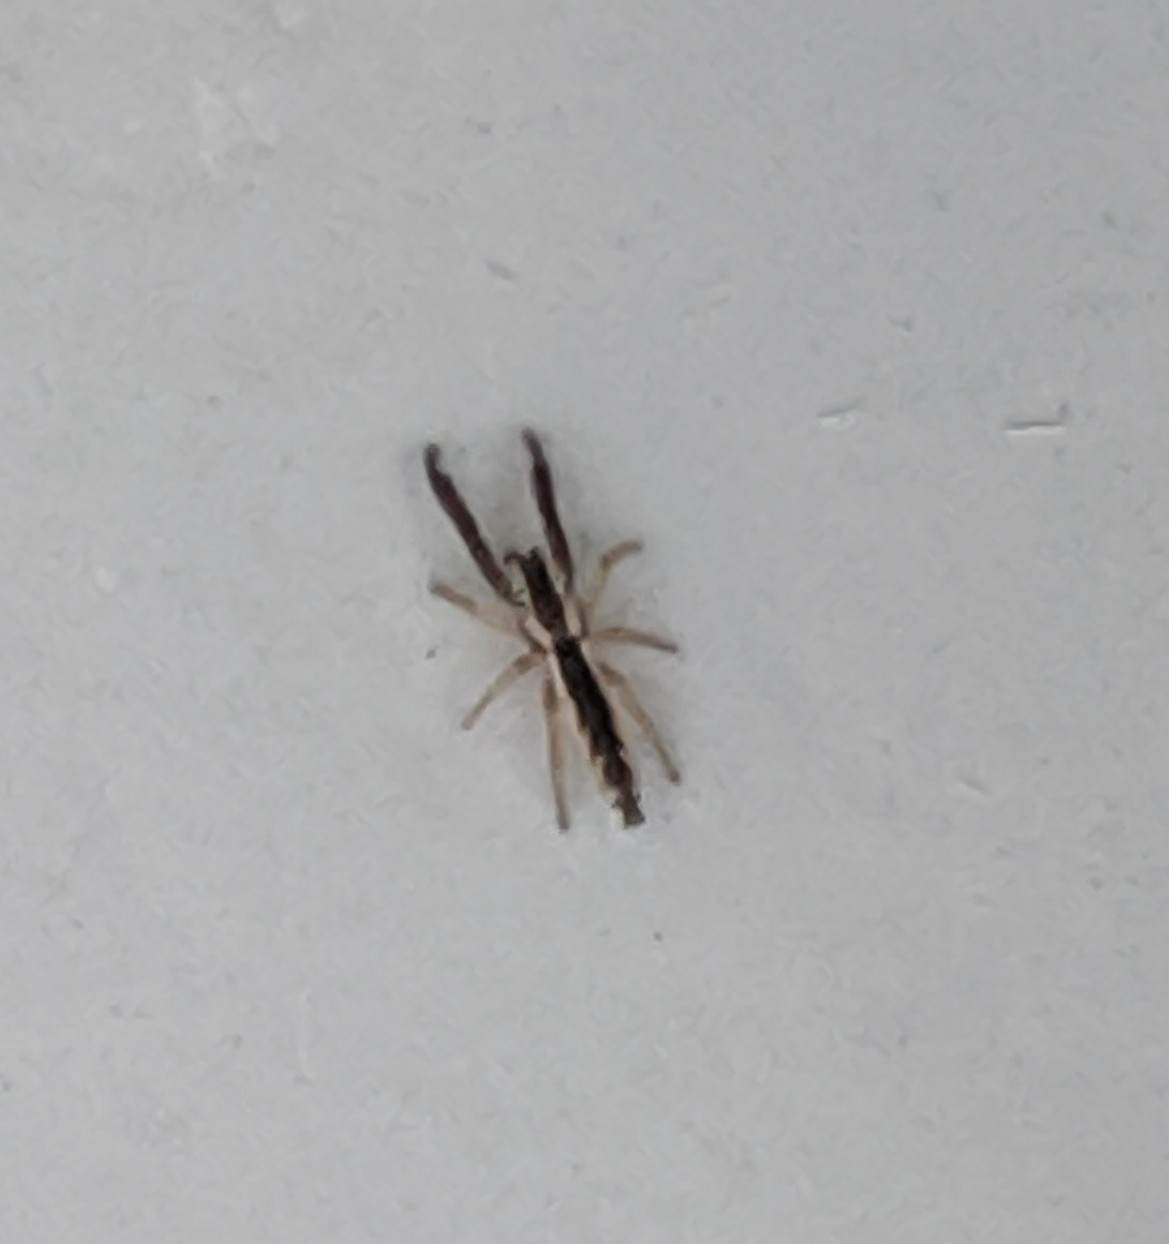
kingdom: Animalia
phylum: Arthropoda
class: Arachnida
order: Araneae
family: Salticidae
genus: Marpissa
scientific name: Marpissa pikei
